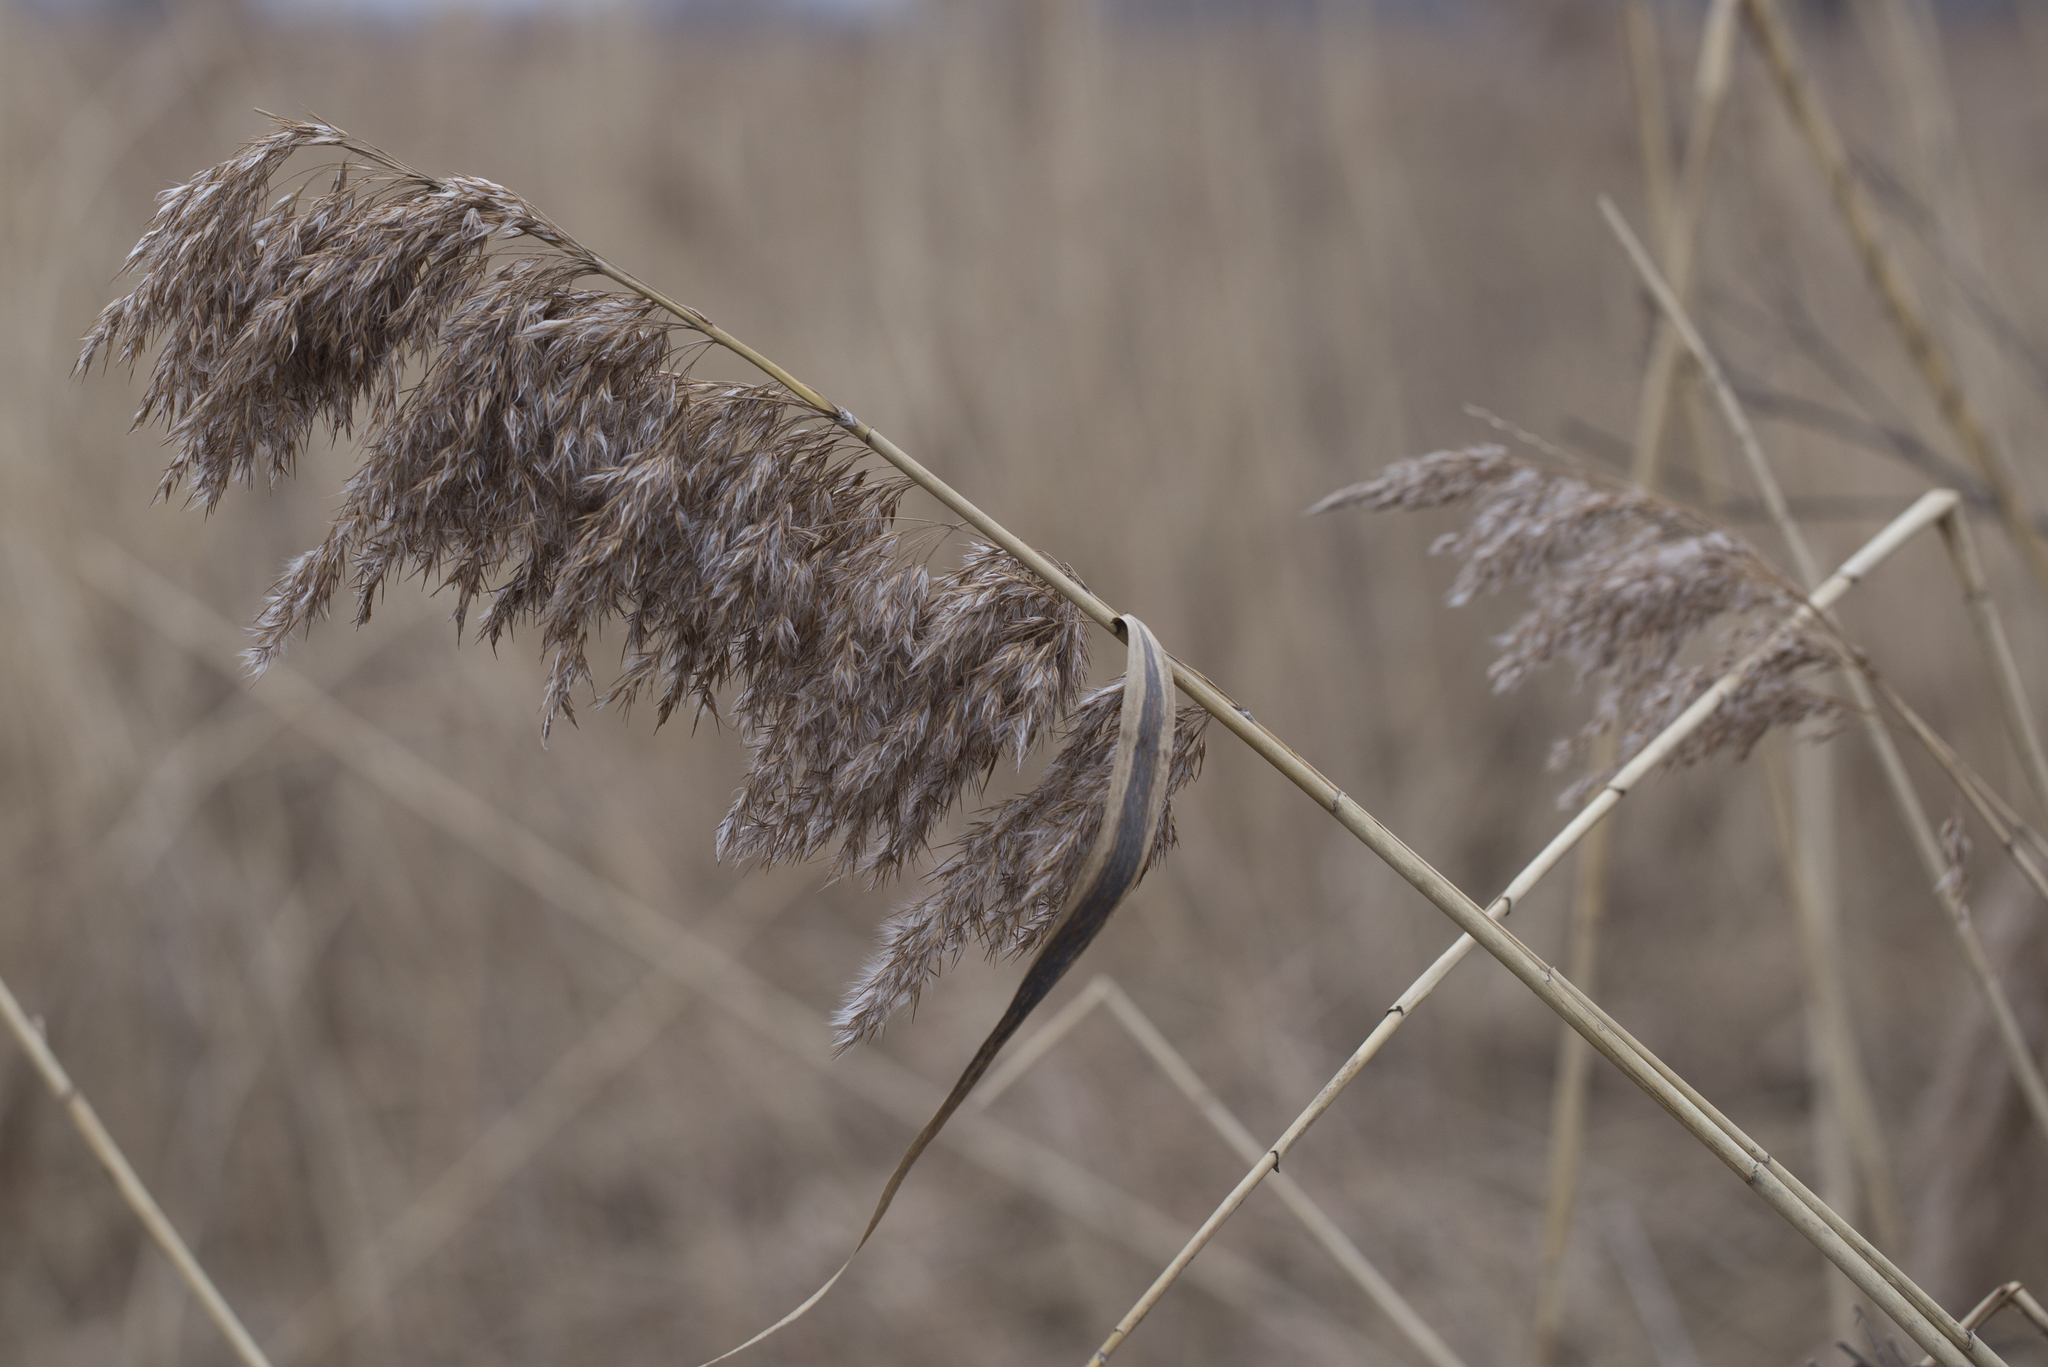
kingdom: Plantae
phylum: Tracheophyta
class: Liliopsida
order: Poales
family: Poaceae
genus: Phragmites
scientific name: Phragmites australis
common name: Common reed
